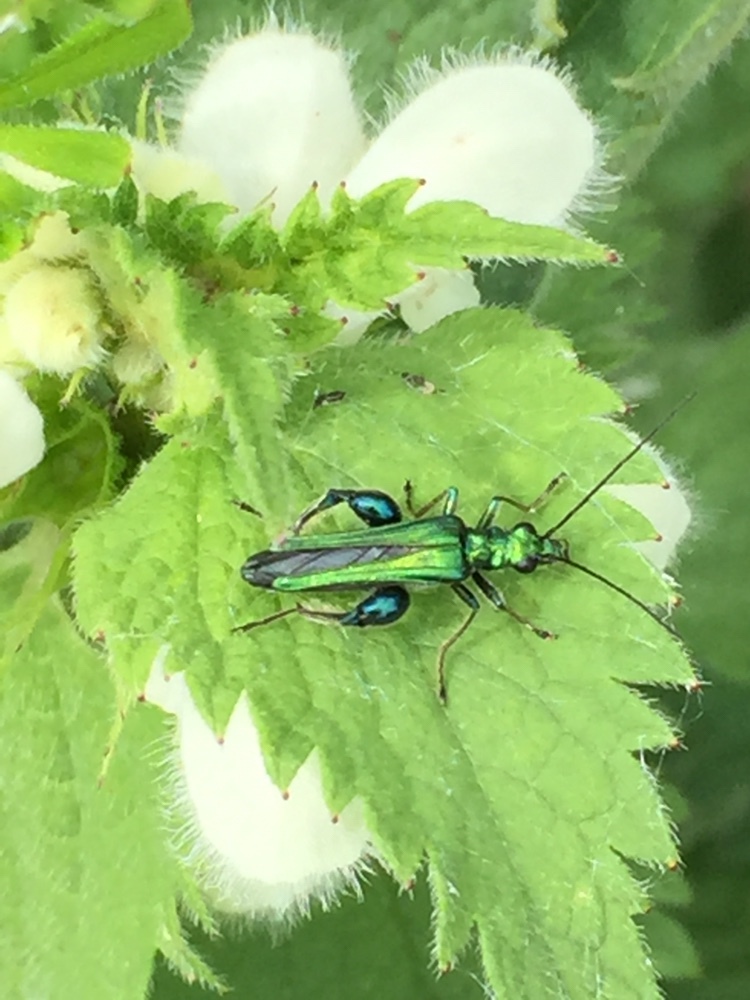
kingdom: Animalia
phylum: Arthropoda
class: Insecta
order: Coleoptera
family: Oedemeridae
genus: Oedemera
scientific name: Oedemera nobilis
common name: Swollen-thighed beetle
